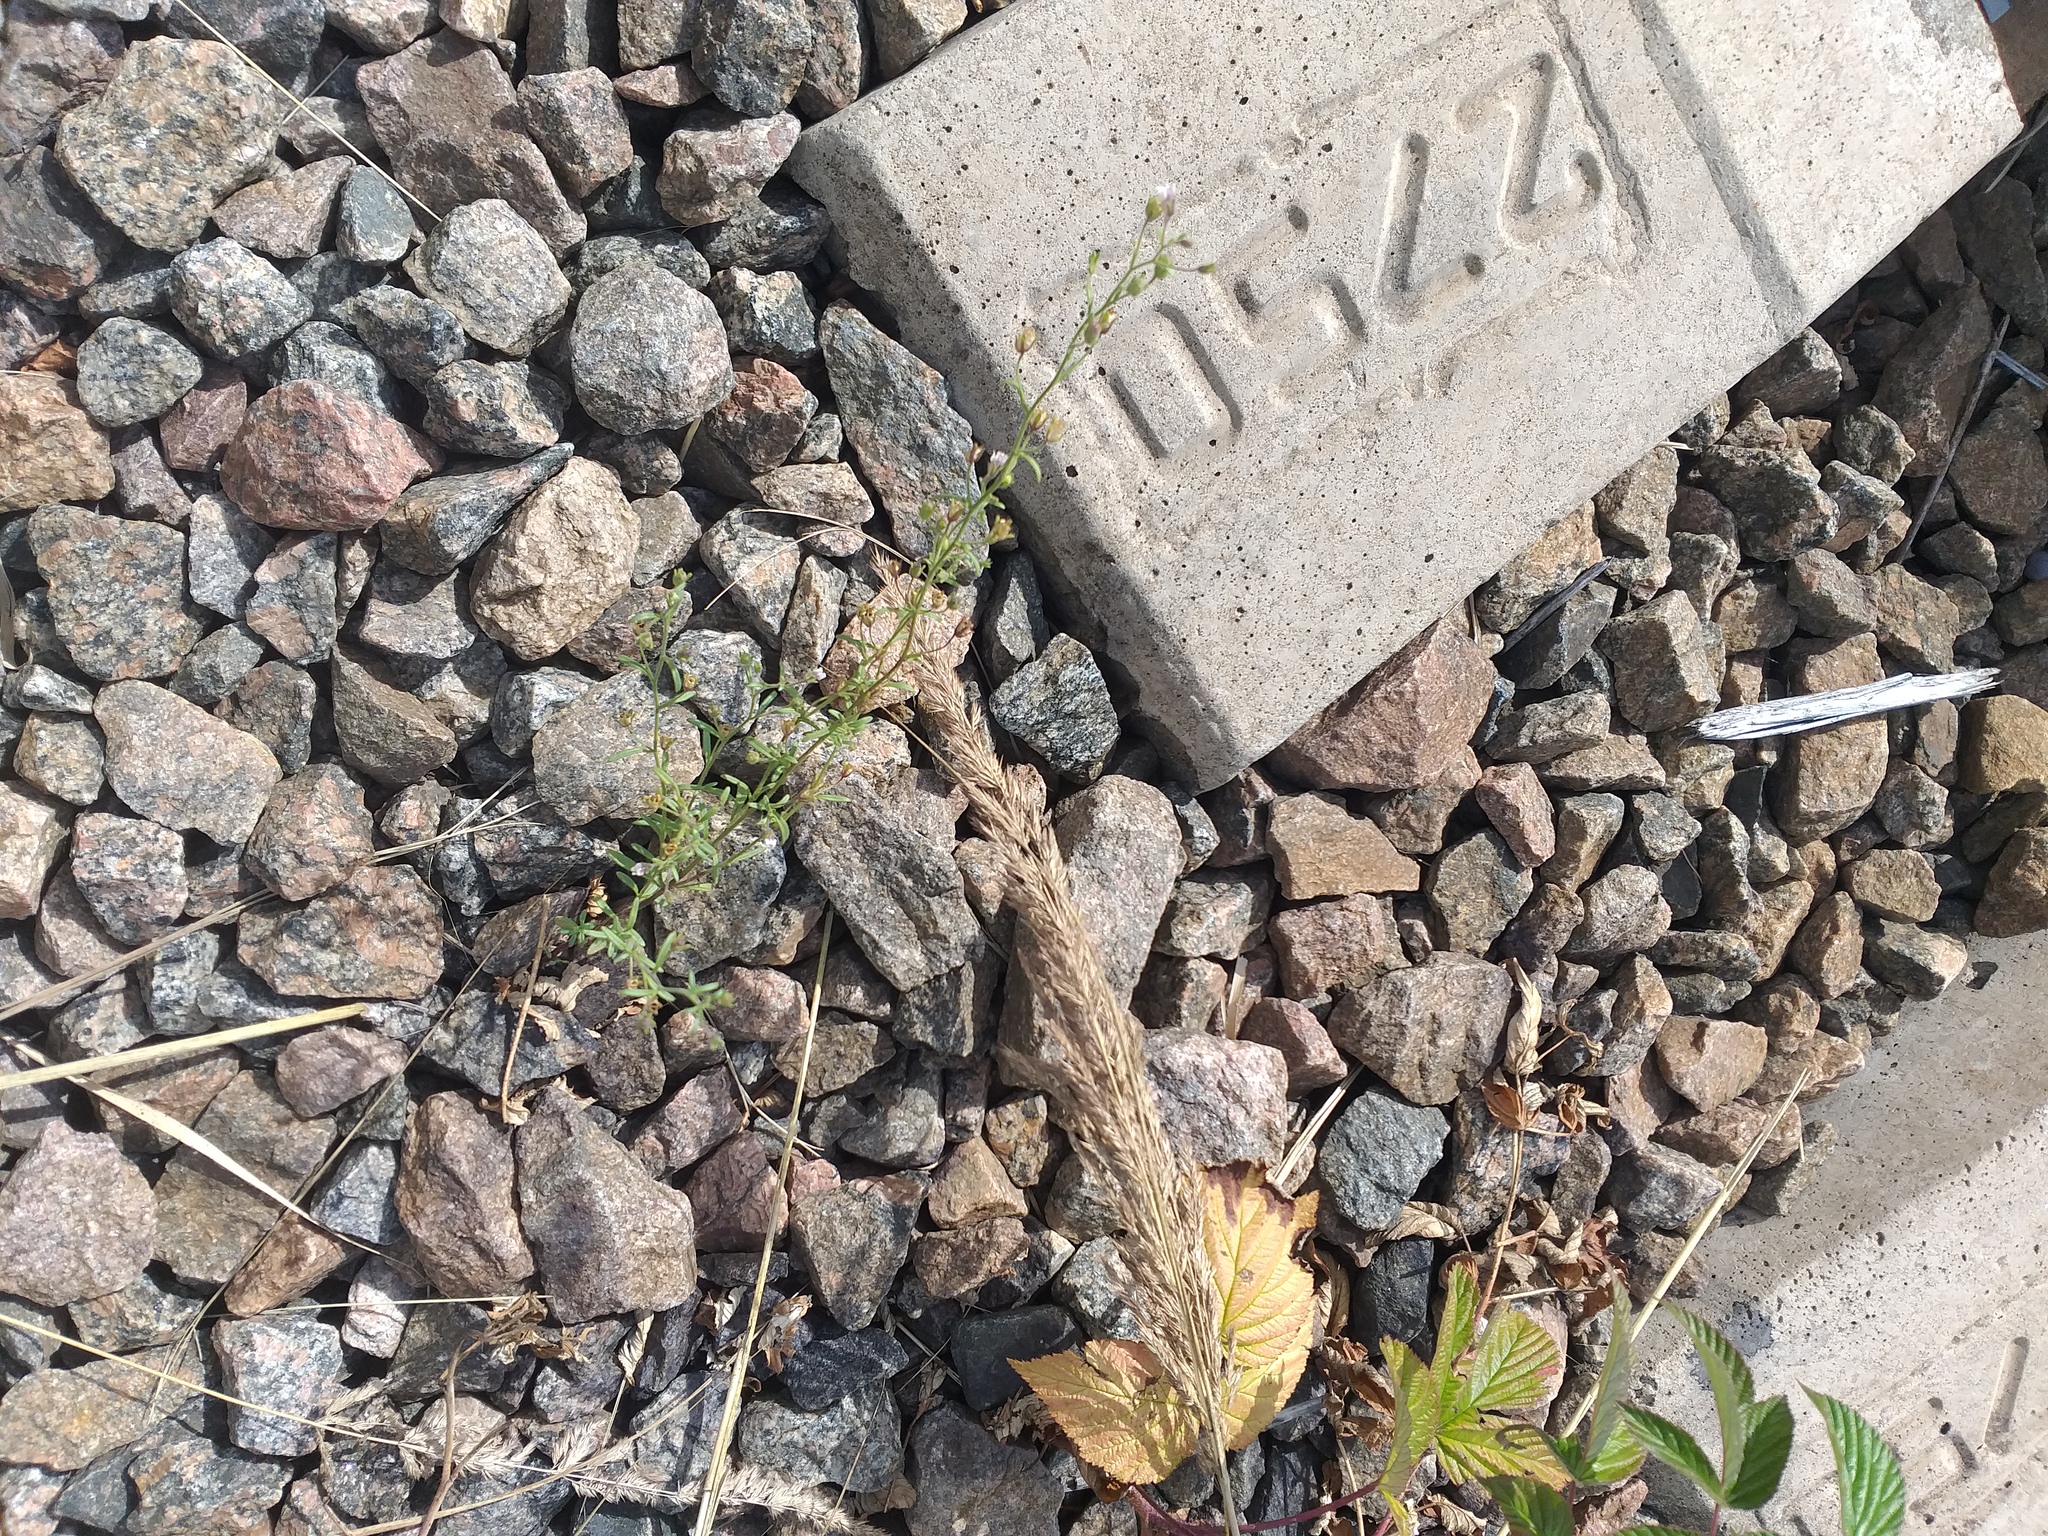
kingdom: Plantae
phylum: Tracheophyta
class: Magnoliopsida
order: Lamiales
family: Plantaginaceae
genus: Chaenorhinum
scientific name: Chaenorhinum minus
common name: Dwarf snapdragon
